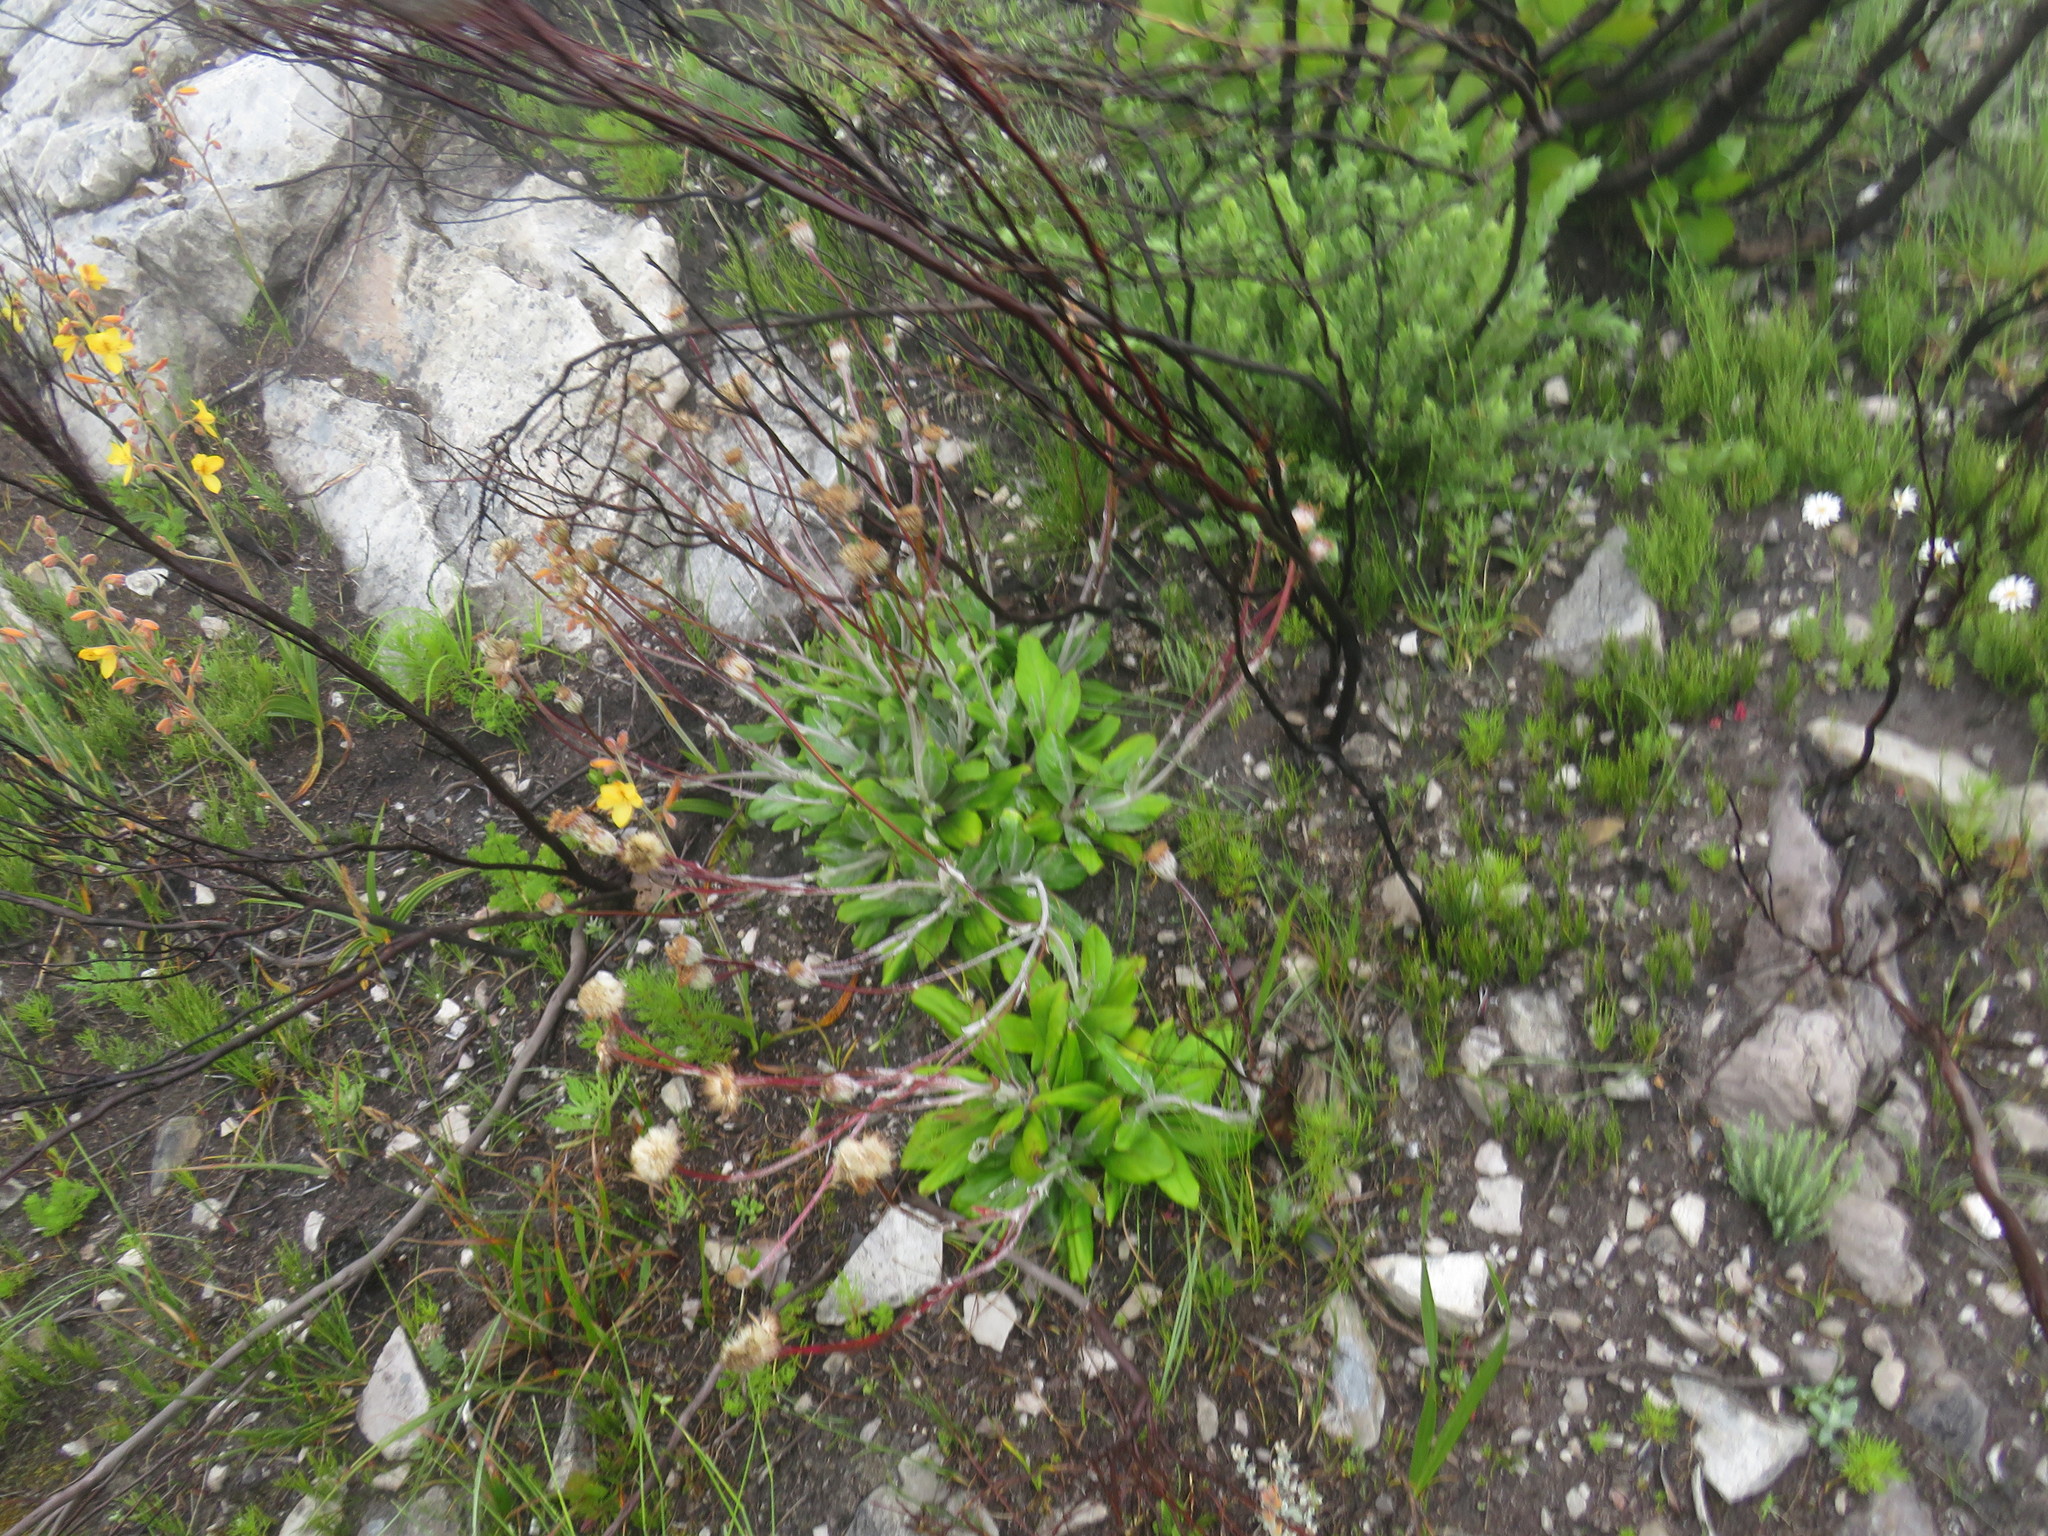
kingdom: Plantae
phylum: Tracheophyta
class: Magnoliopsida
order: Asterales
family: Asteraceae
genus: Mairia
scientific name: Mairia robusta
